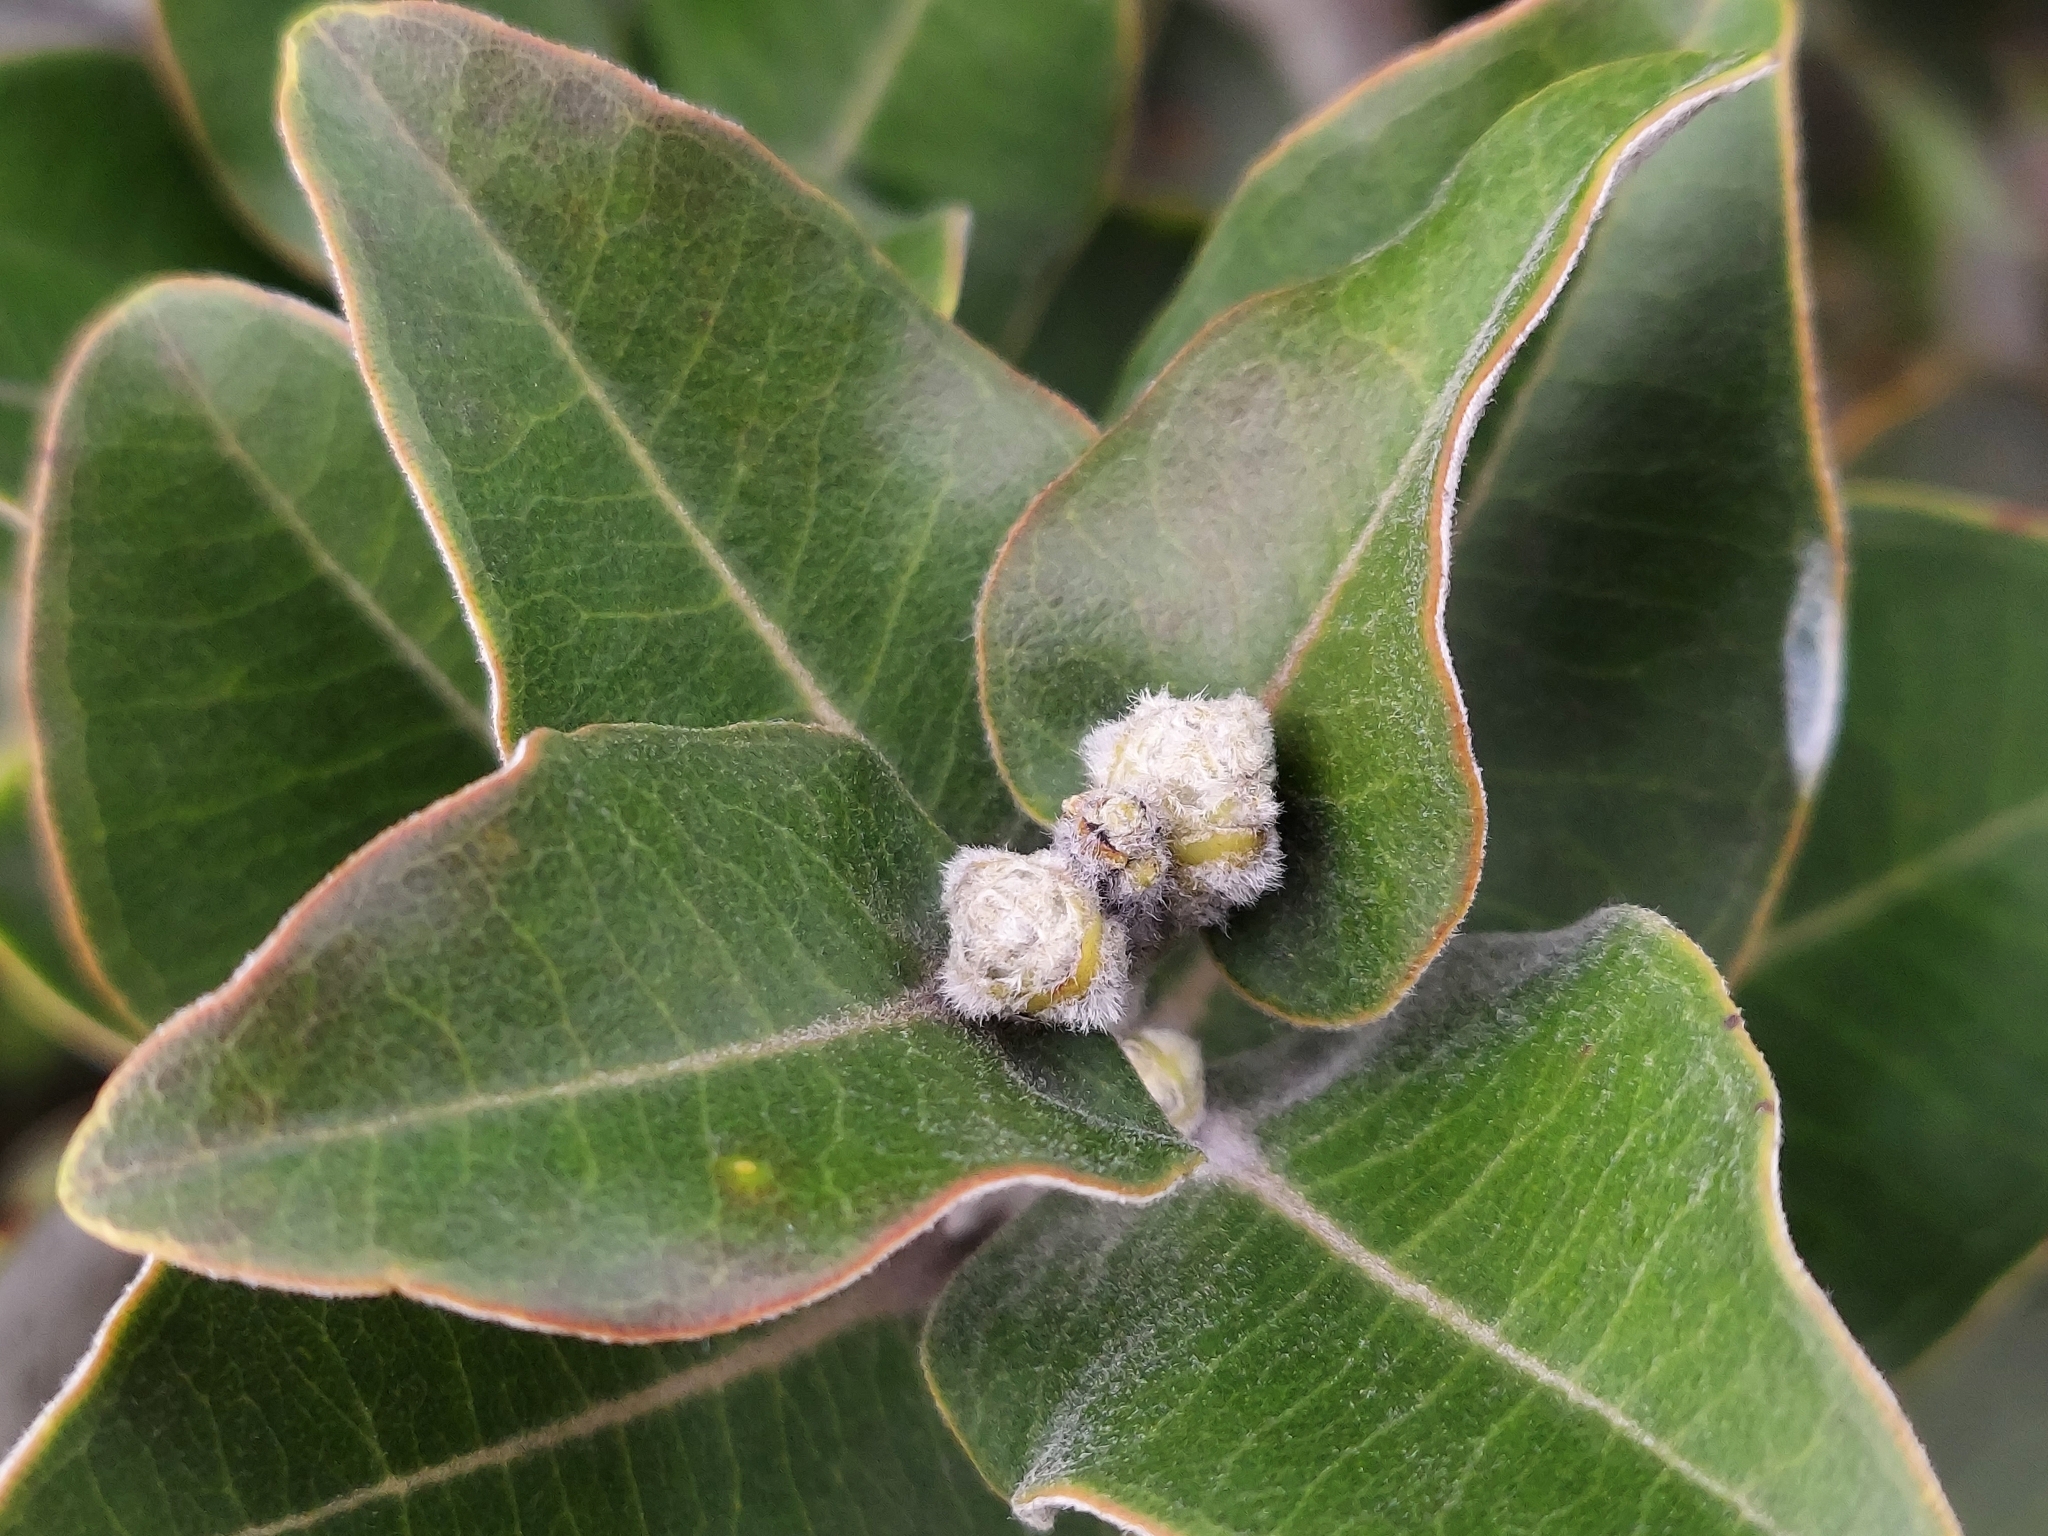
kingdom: Plantae
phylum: Tracheophyta
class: Magnoliopsida
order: Myrtales
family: Myrtaceae
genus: Metrosideros
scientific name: Metrosideros polymorpha
